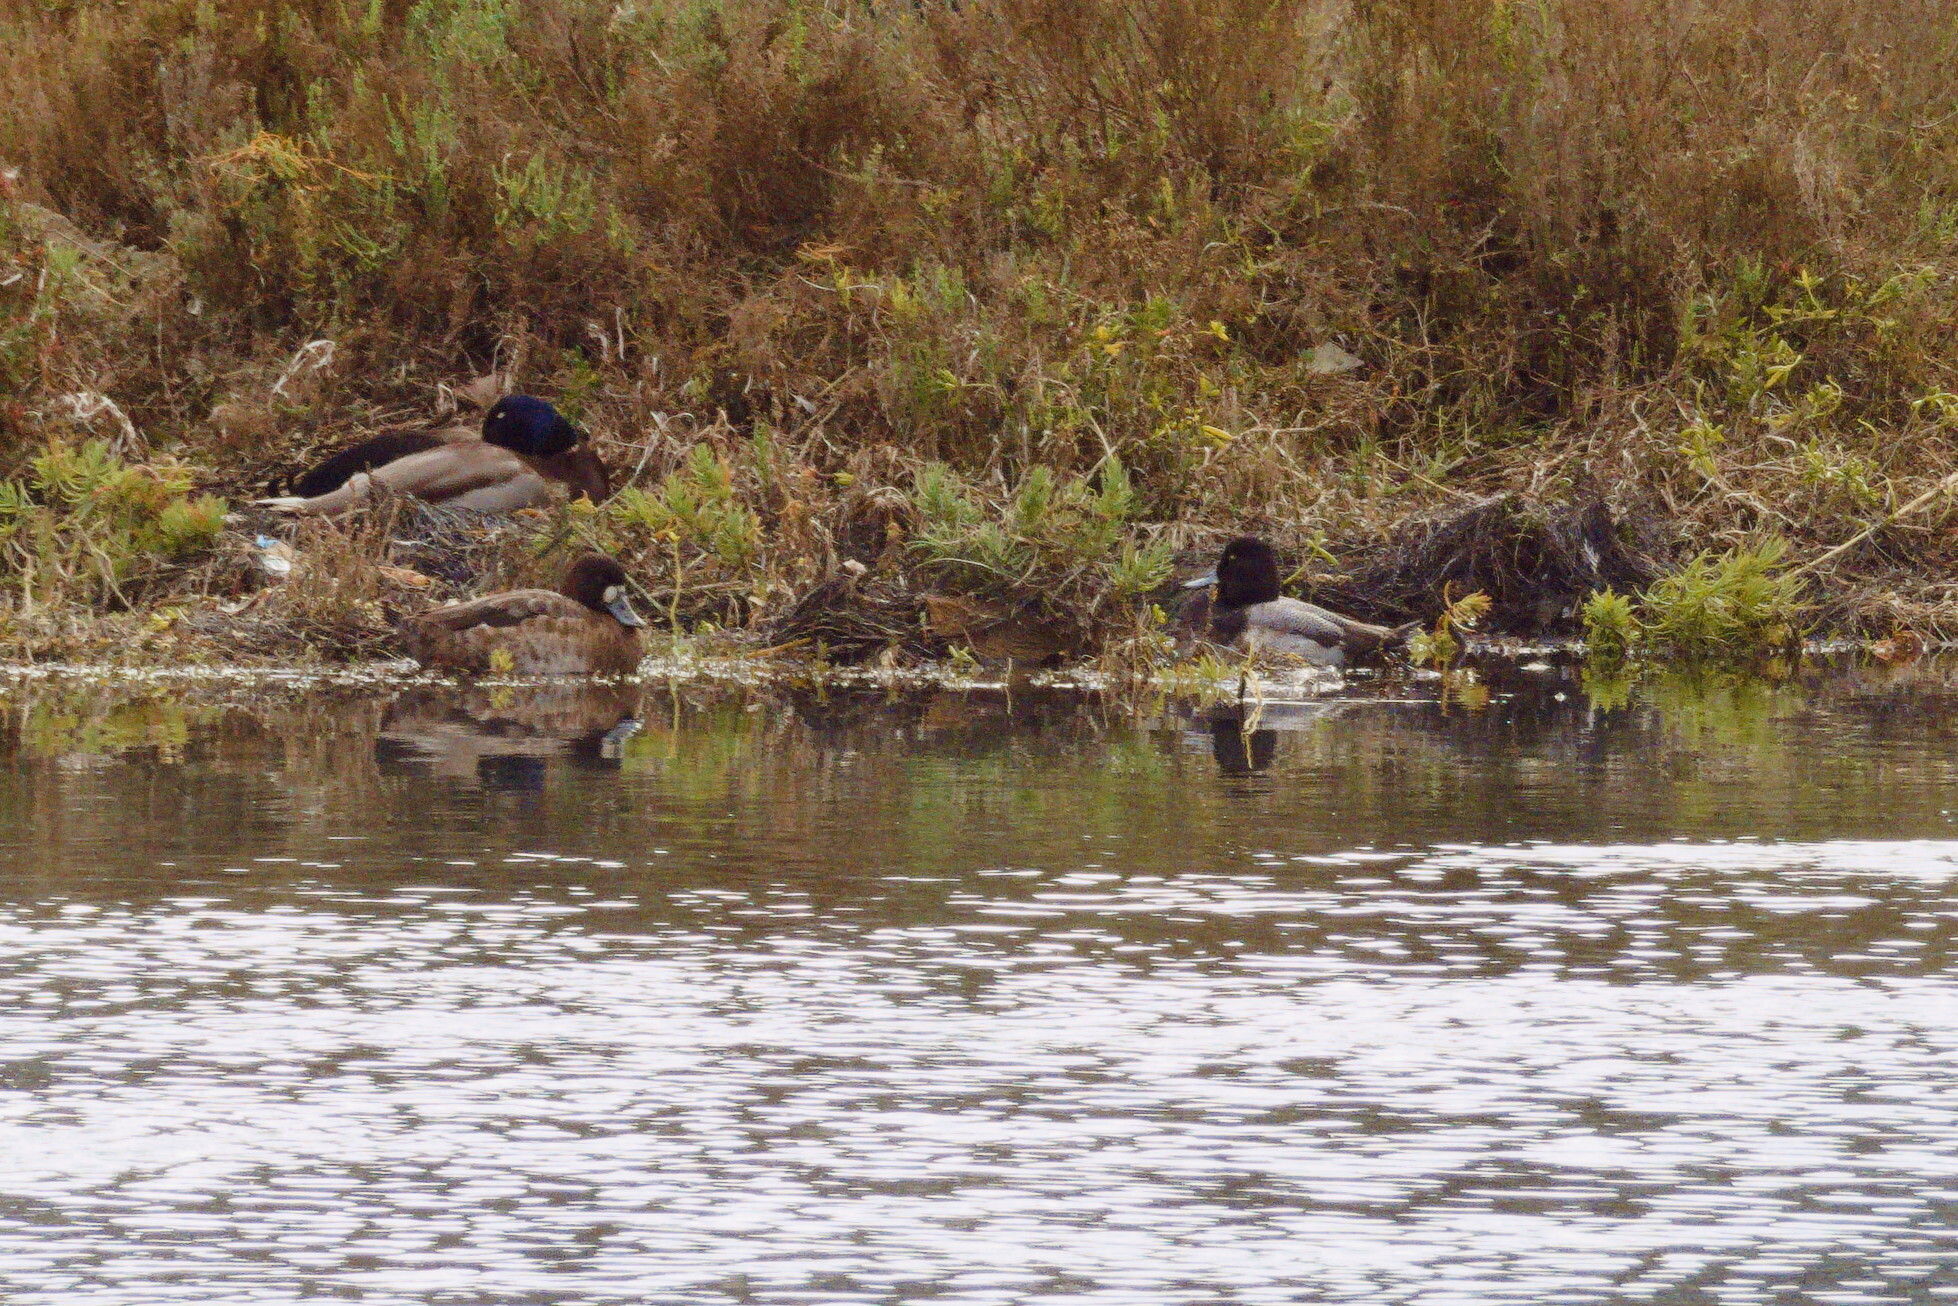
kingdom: Animalia
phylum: Chordata
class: Aves
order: Anseriformes
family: Anatidae
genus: Aythya
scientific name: Aythya affinis
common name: Lesser scaup
